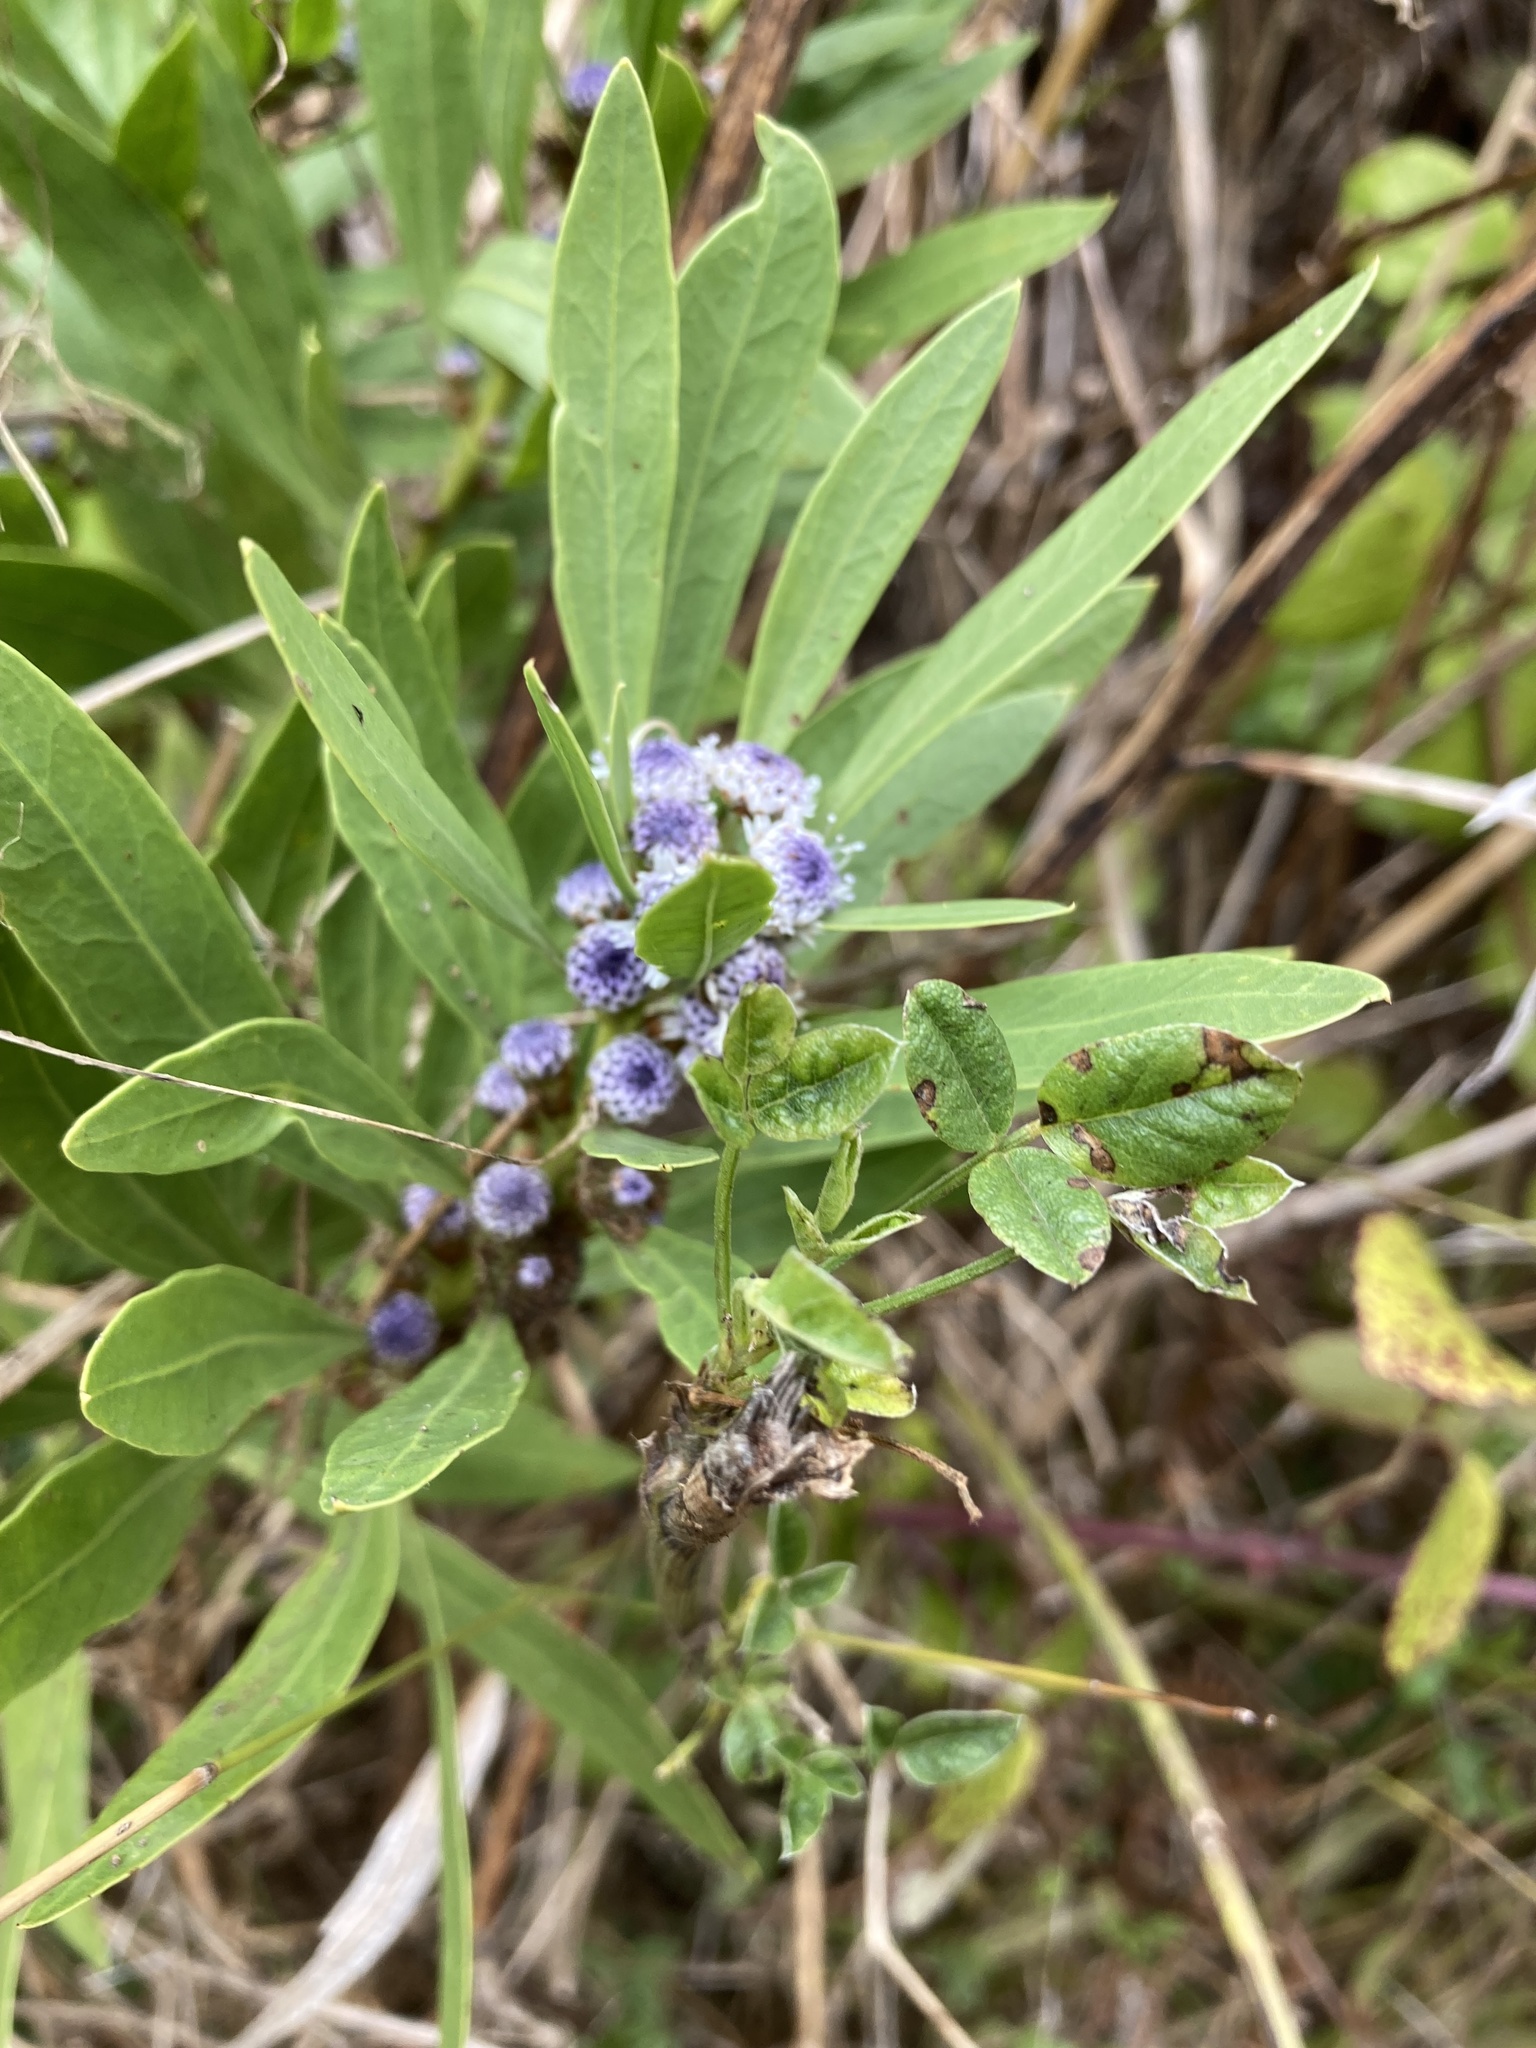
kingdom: Plantae
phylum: Tracheophyta
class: Magnoliopsida
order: Lamiales
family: Plantaginaceae
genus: Globularia
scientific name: Globularia salicina
